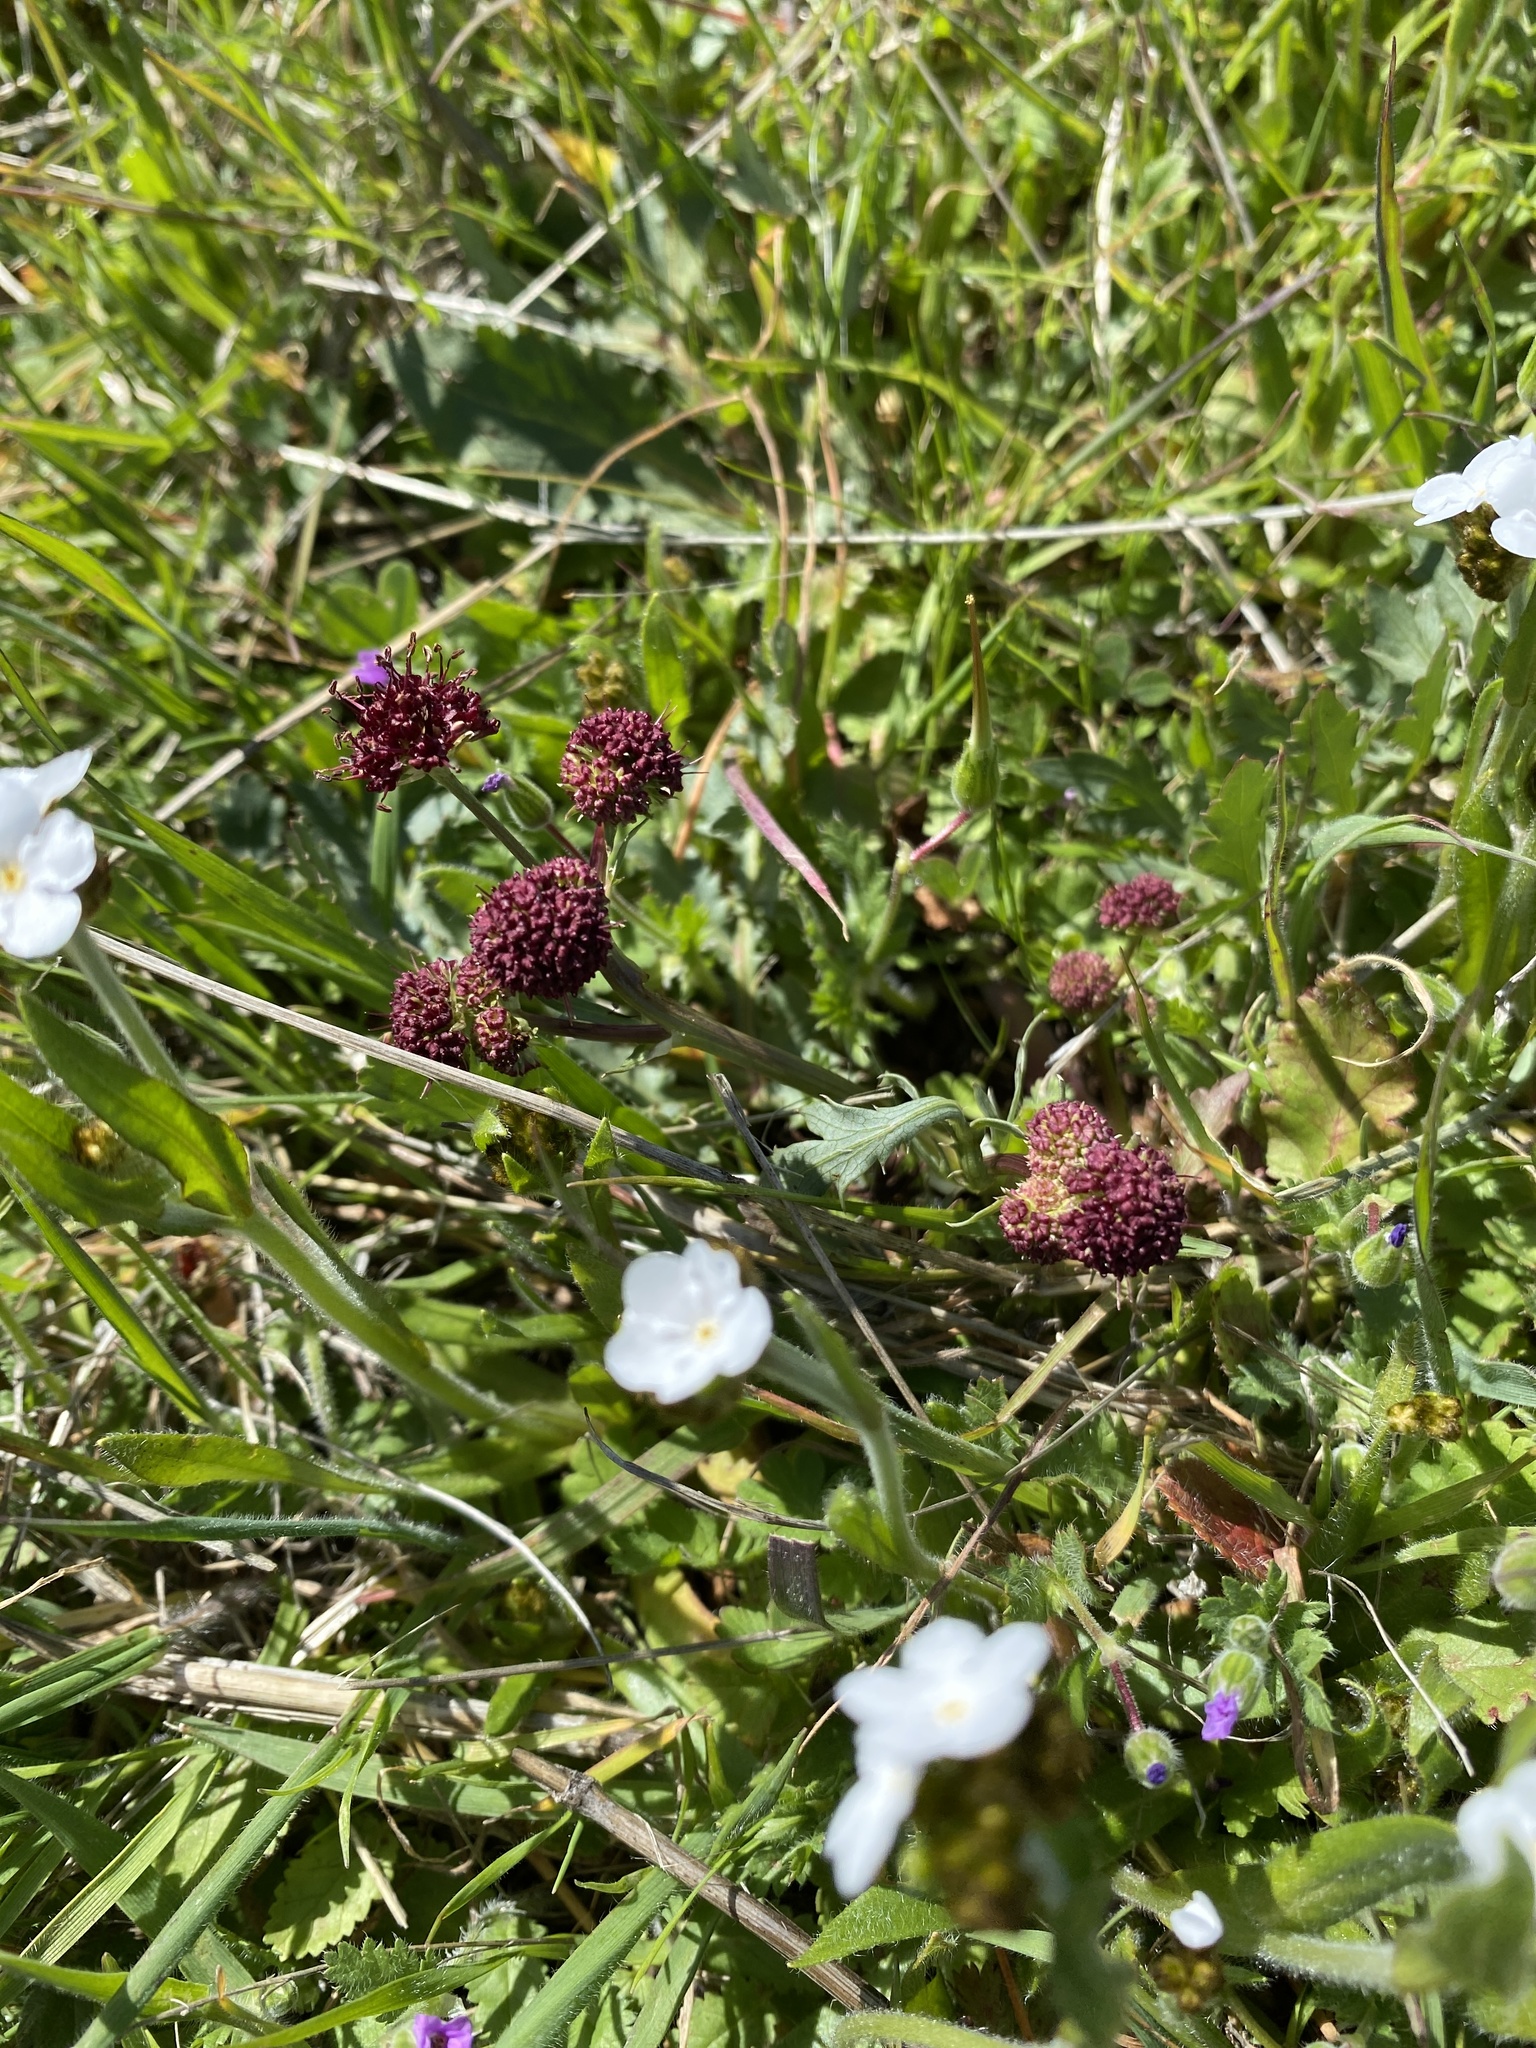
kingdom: Plantae
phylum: Tracheophyta
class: Magnoliopsida
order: Apiales
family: Apiaceae
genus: Sanicula
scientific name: Sanicula bipinnatifida
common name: Shoe-buttons
